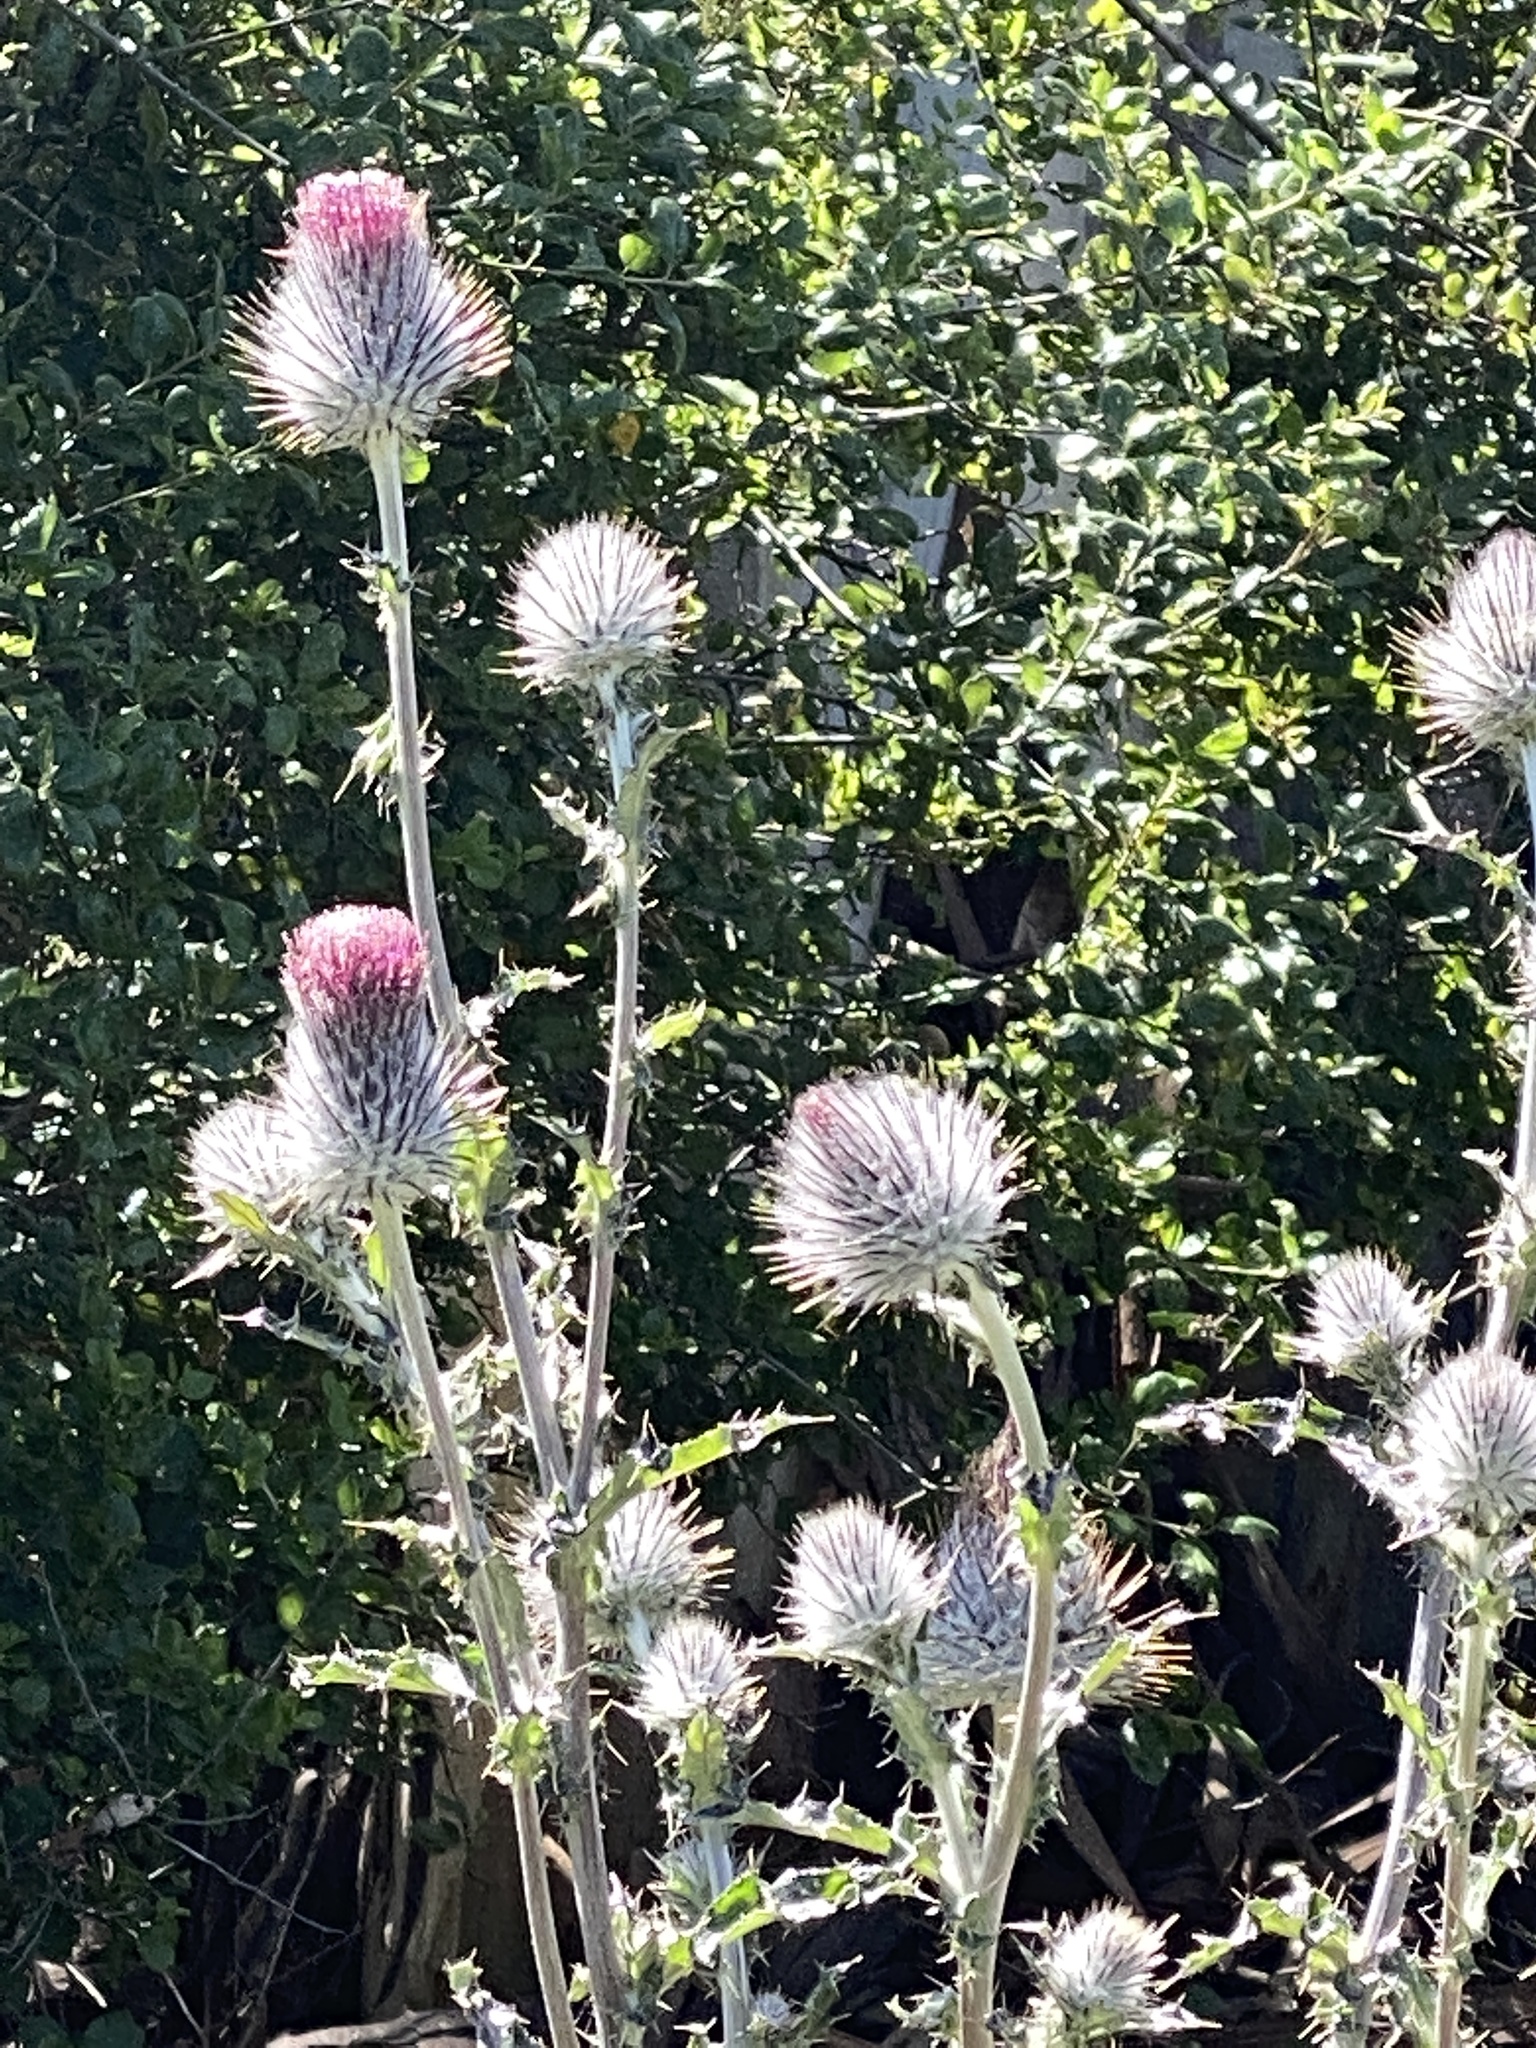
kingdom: Plantae
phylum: Tracheophyta
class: Magnoliopsida
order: Asterales
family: Asteraceae
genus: Cirsium
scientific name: Cirsium occidentale
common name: Western thistle
